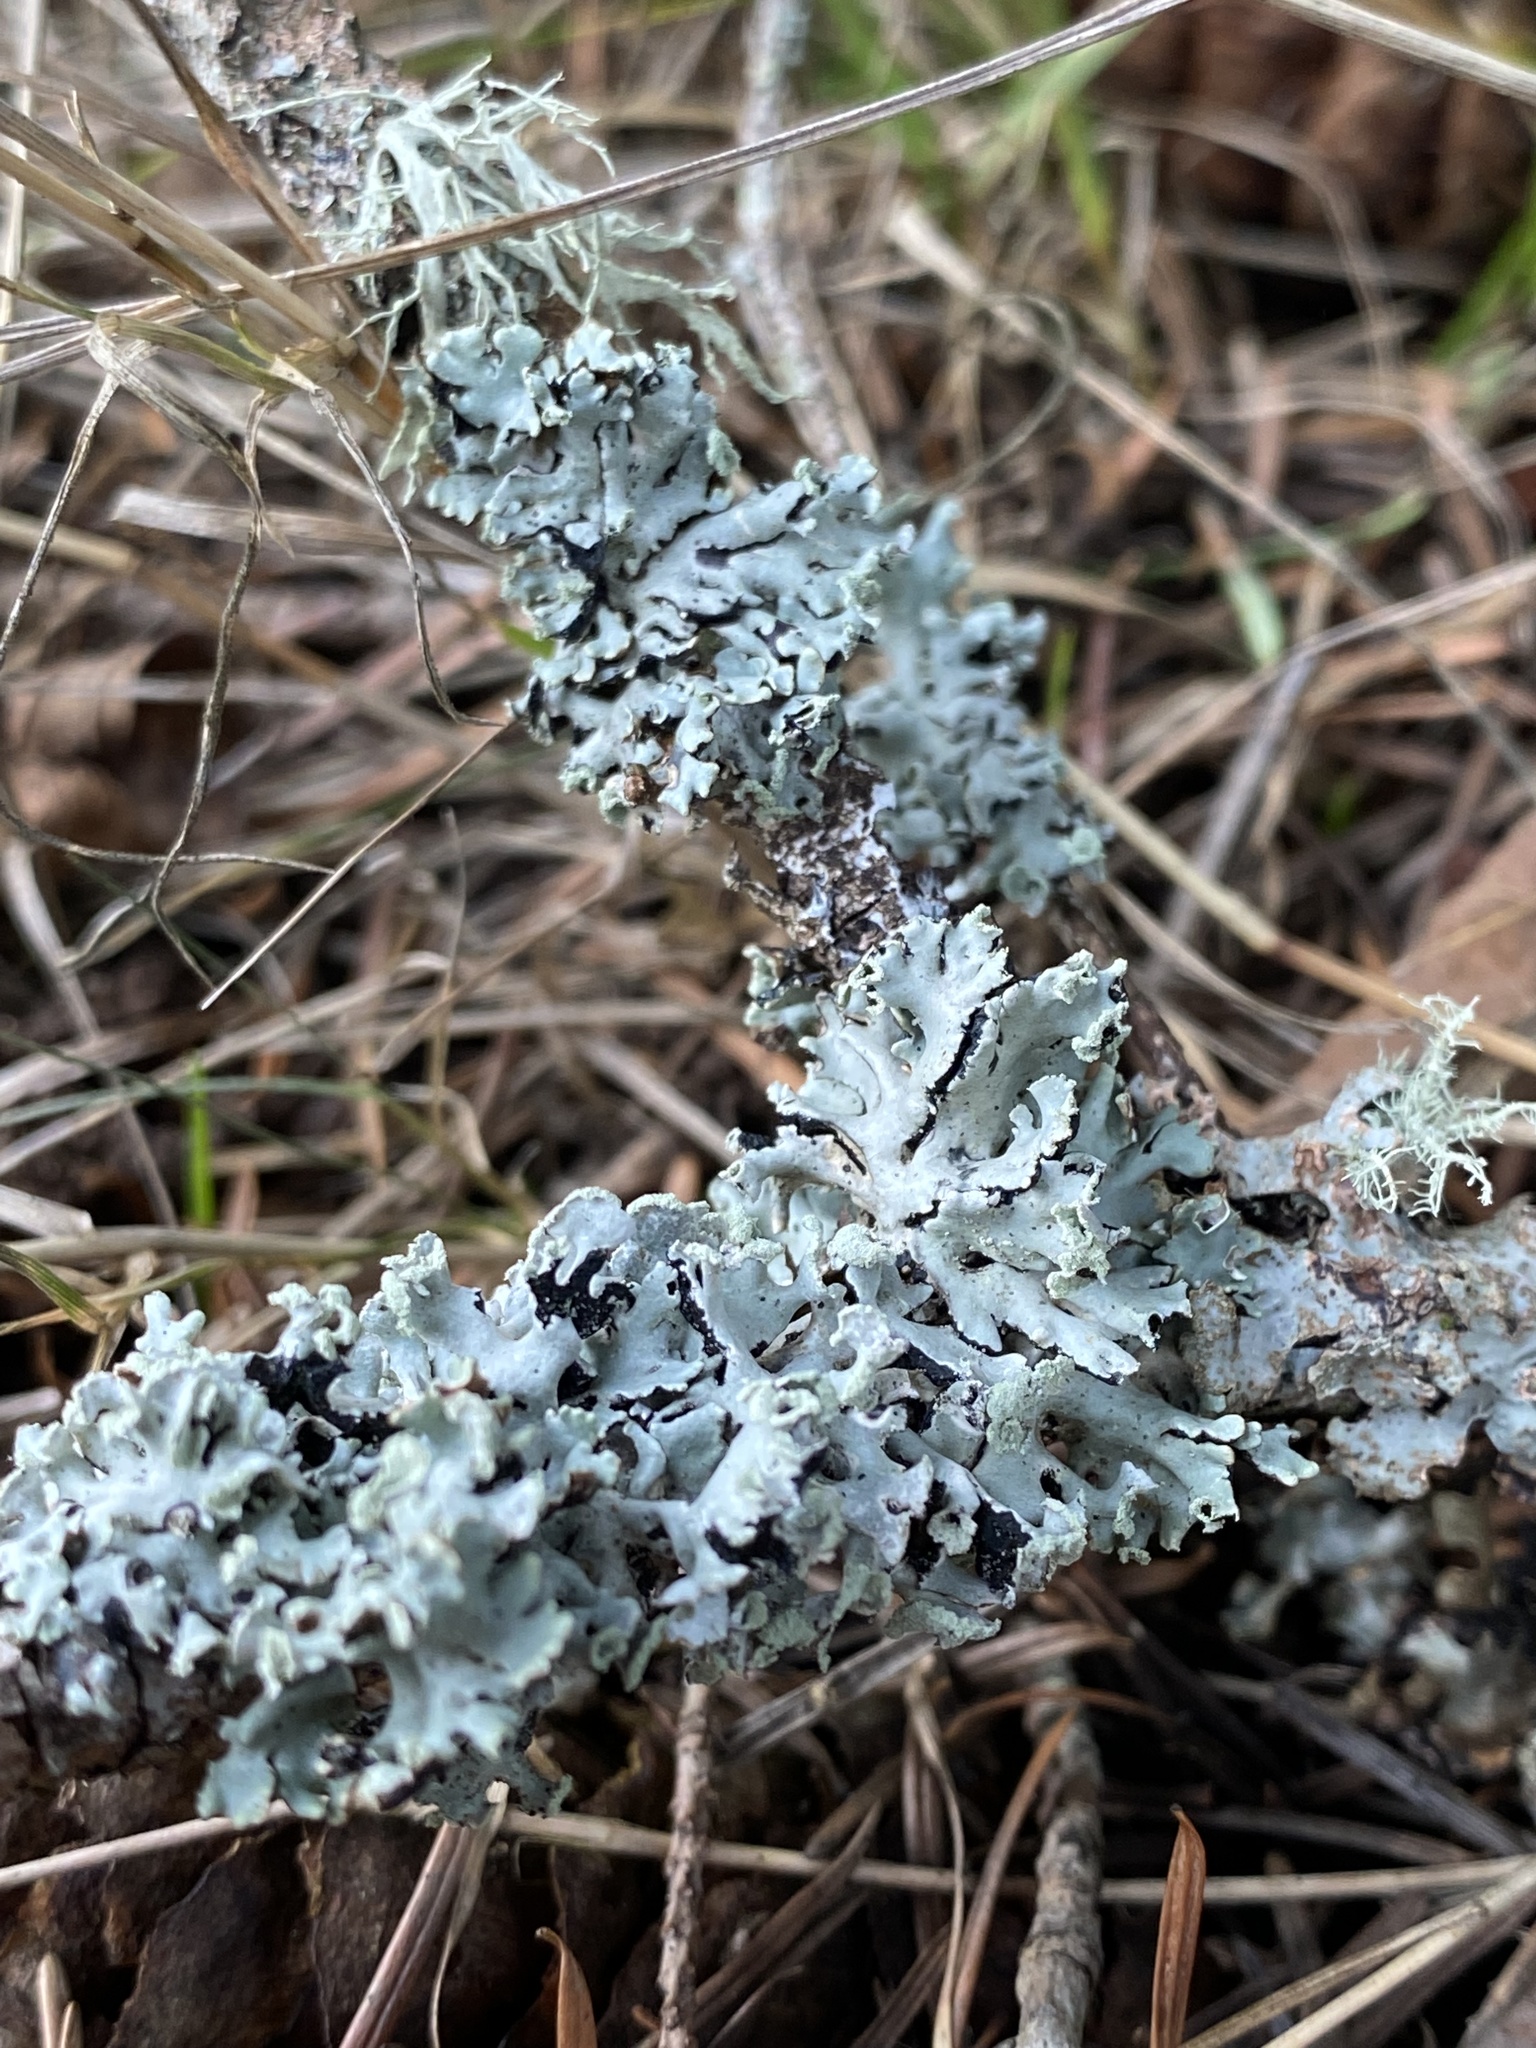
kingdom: Fungi
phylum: Ascomycota
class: Lecanoromycetes
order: Lecanorales
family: Parmeliaceae
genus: Hypogymnia
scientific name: Hypogymnia physodes
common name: Dark crottle
